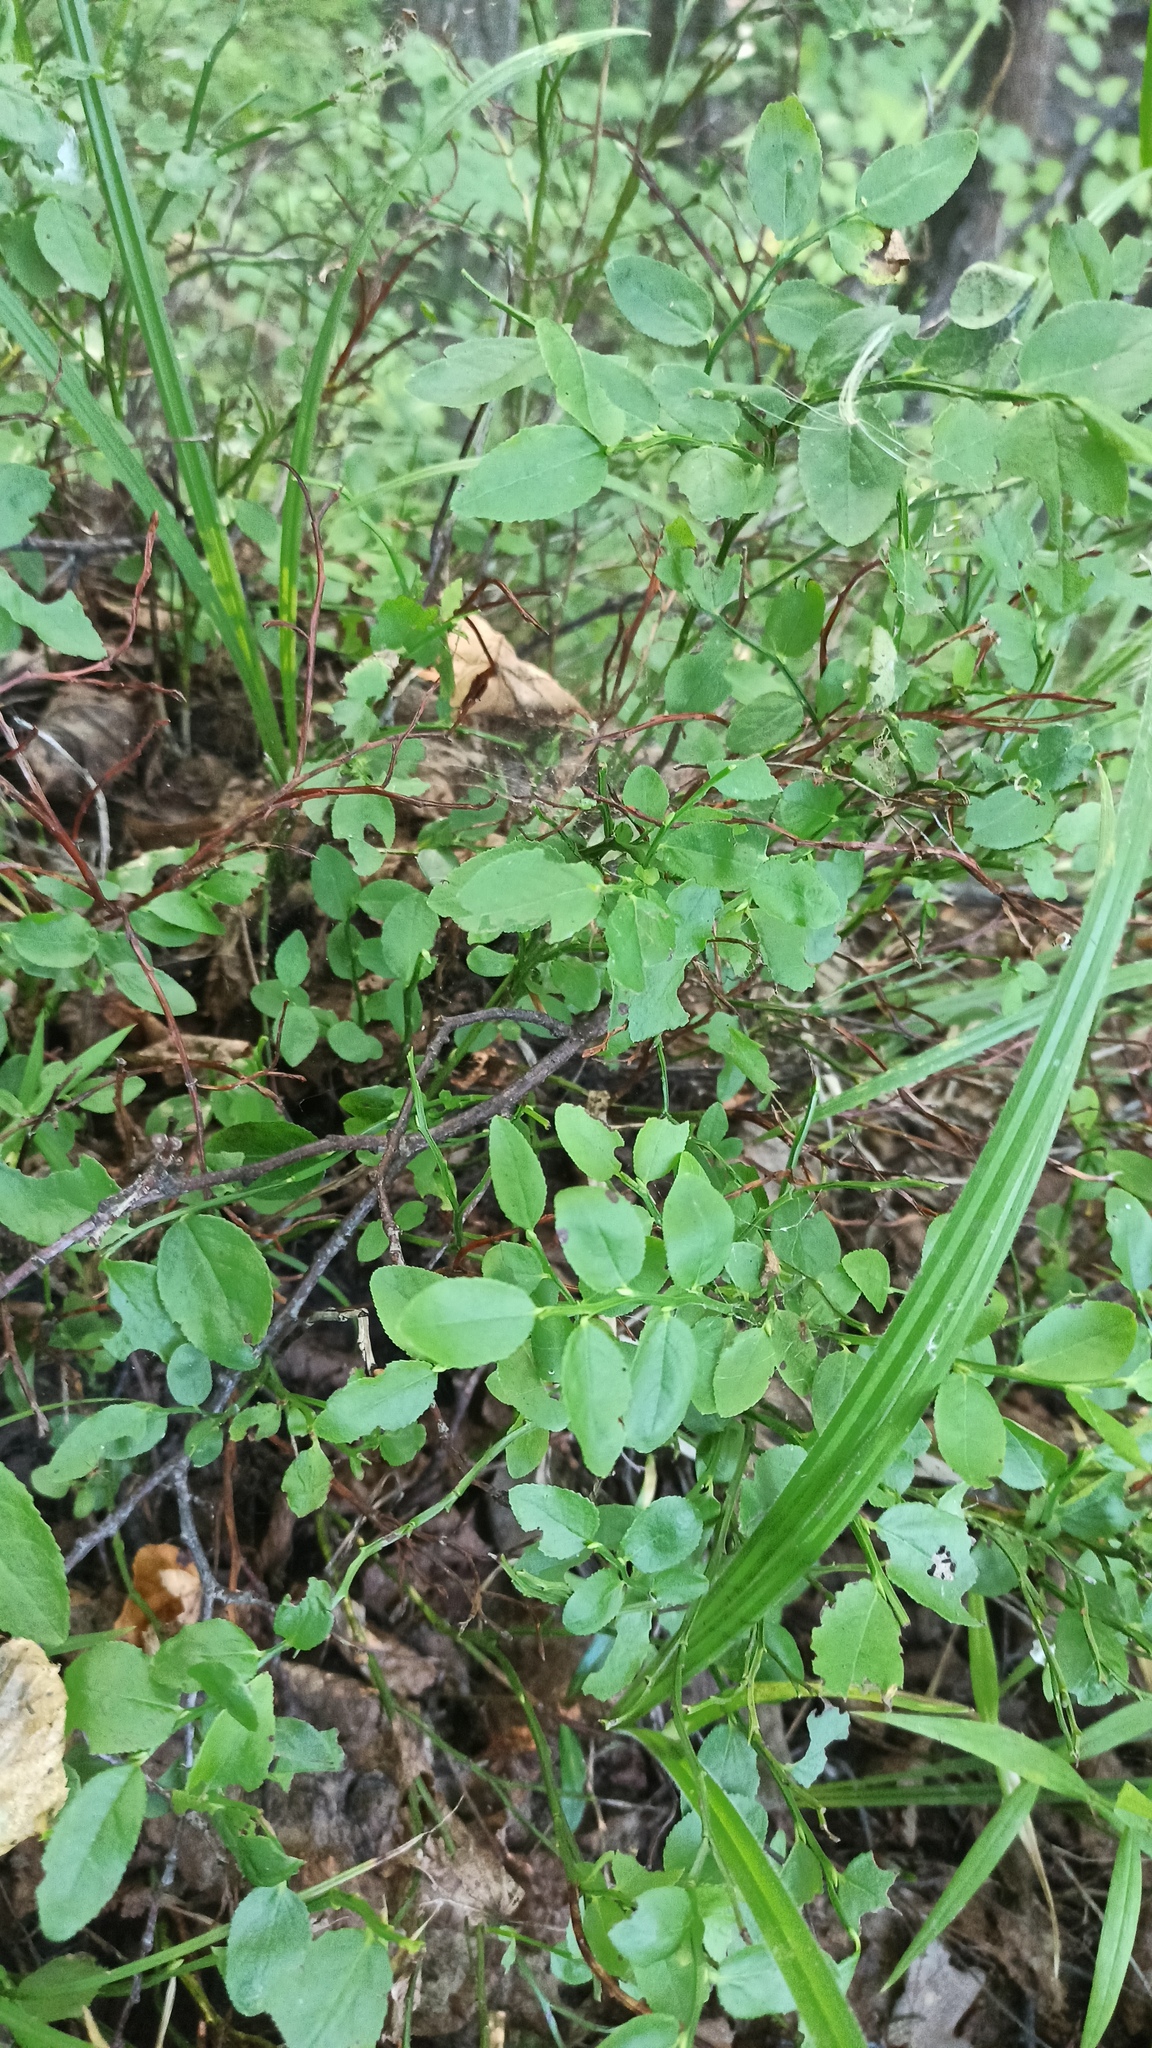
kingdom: Plantae
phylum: Tracheophyta
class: Magnoliopsida
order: Ericales
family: Ericaceae
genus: Vaccinium
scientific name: Vaccinium myrtillus
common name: Bilberry
